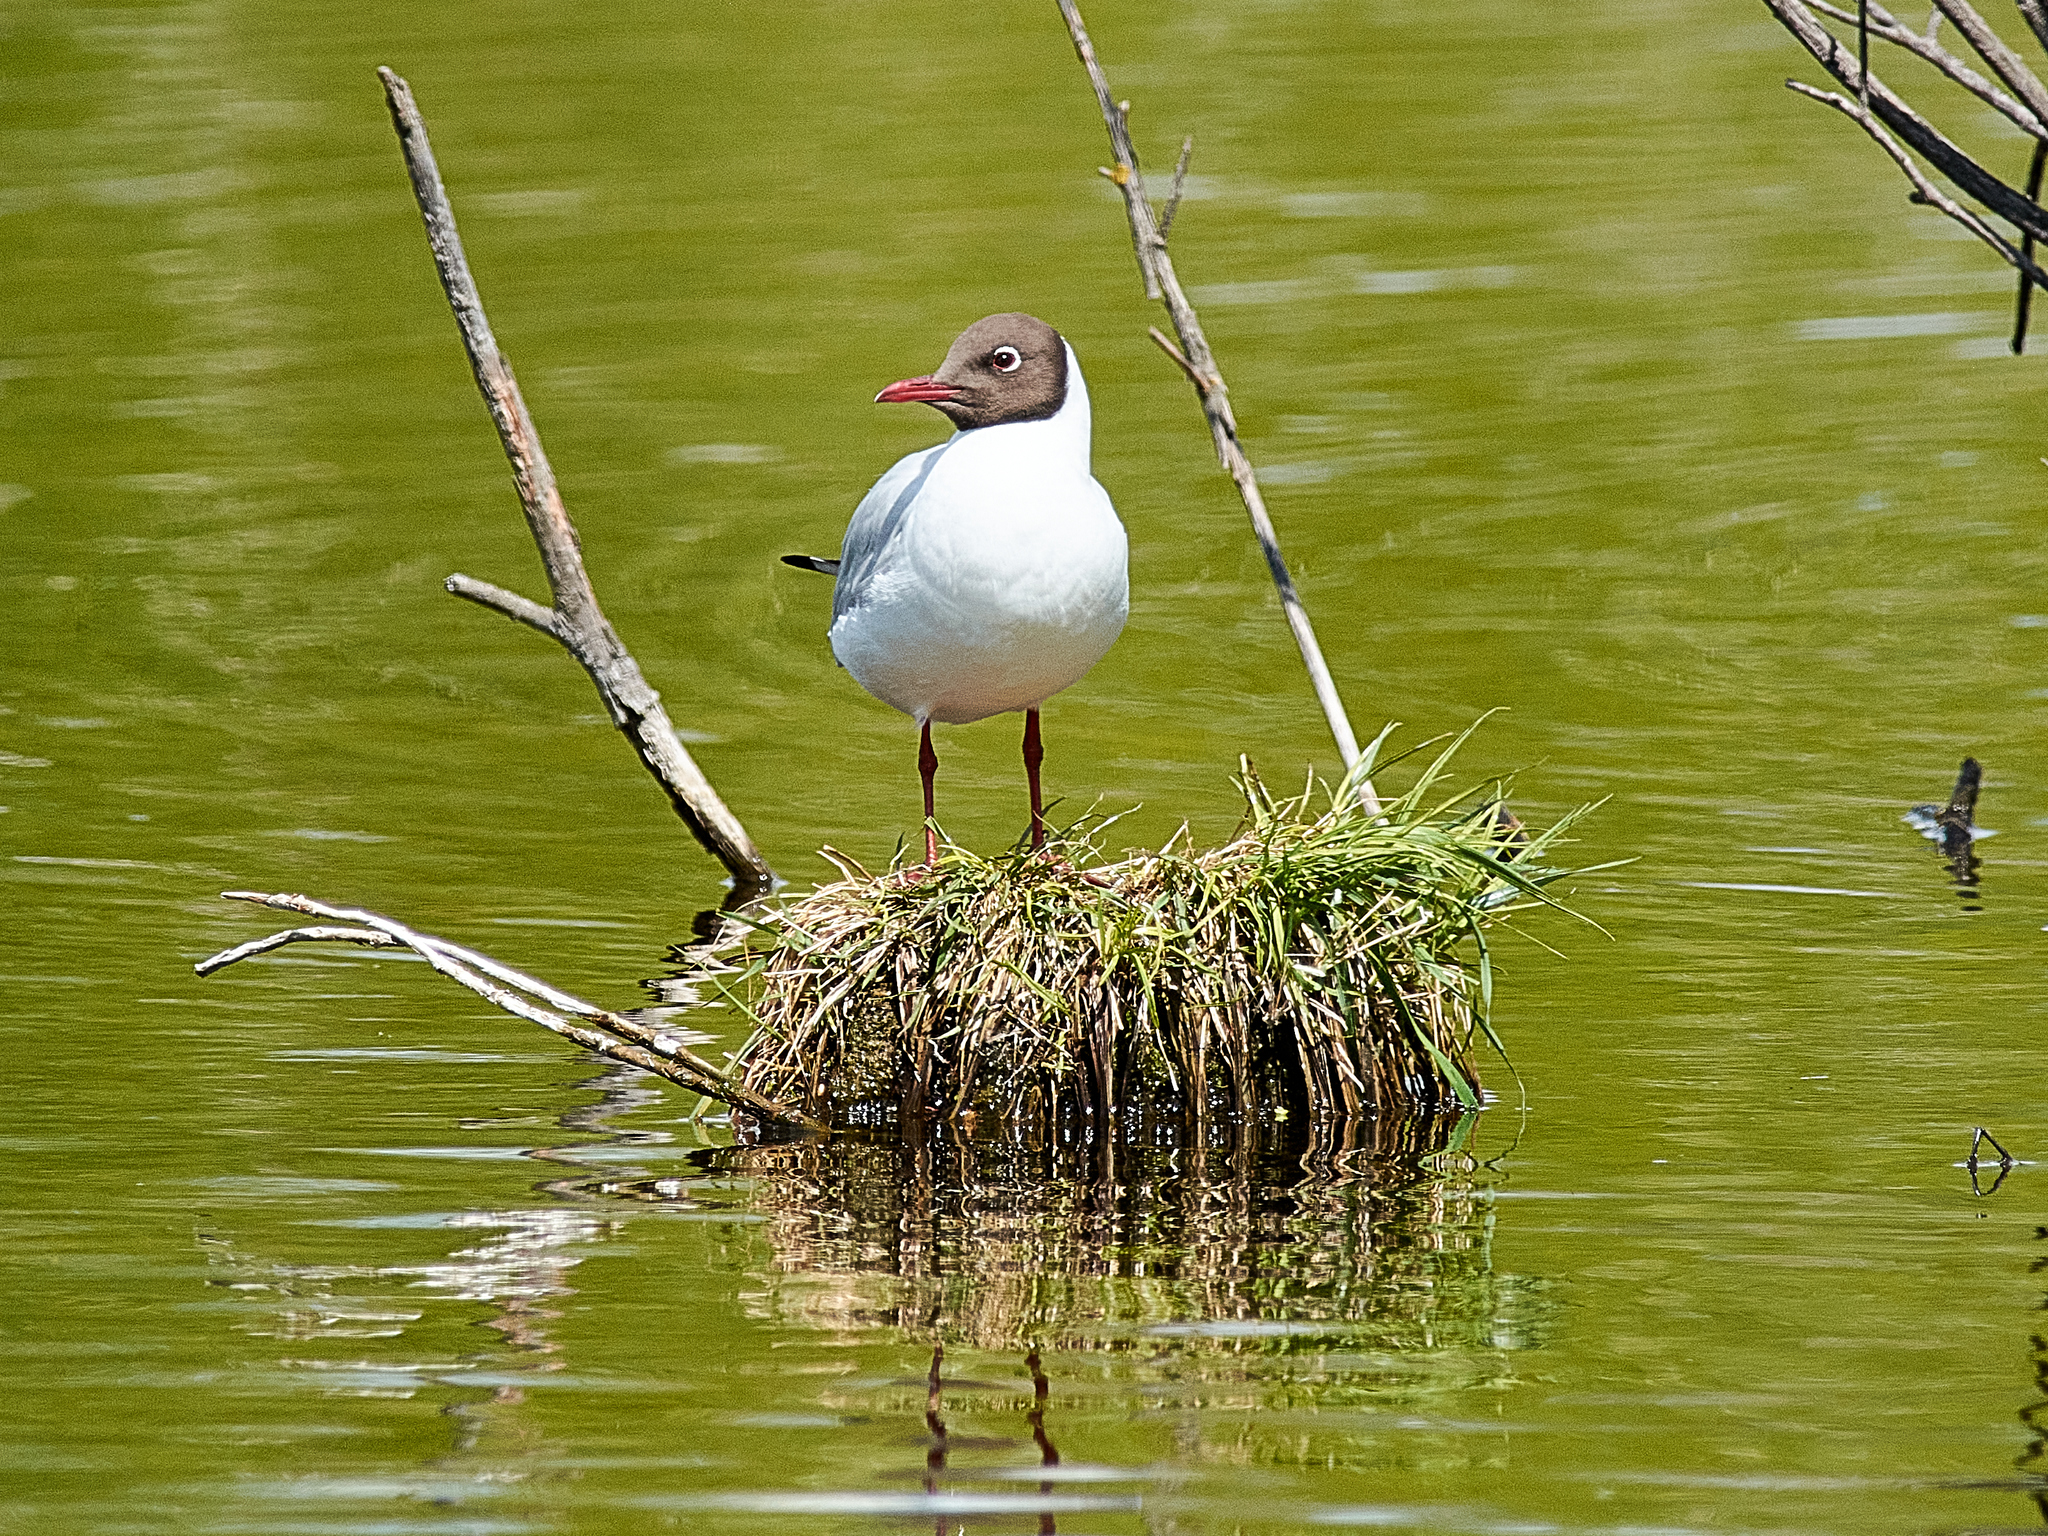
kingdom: Animalia
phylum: Chordata
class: Aves
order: Charadriiformes
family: Laridae
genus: Chroicocephalus
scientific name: Chroicocephalus ridibundus
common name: Black-headed gull
